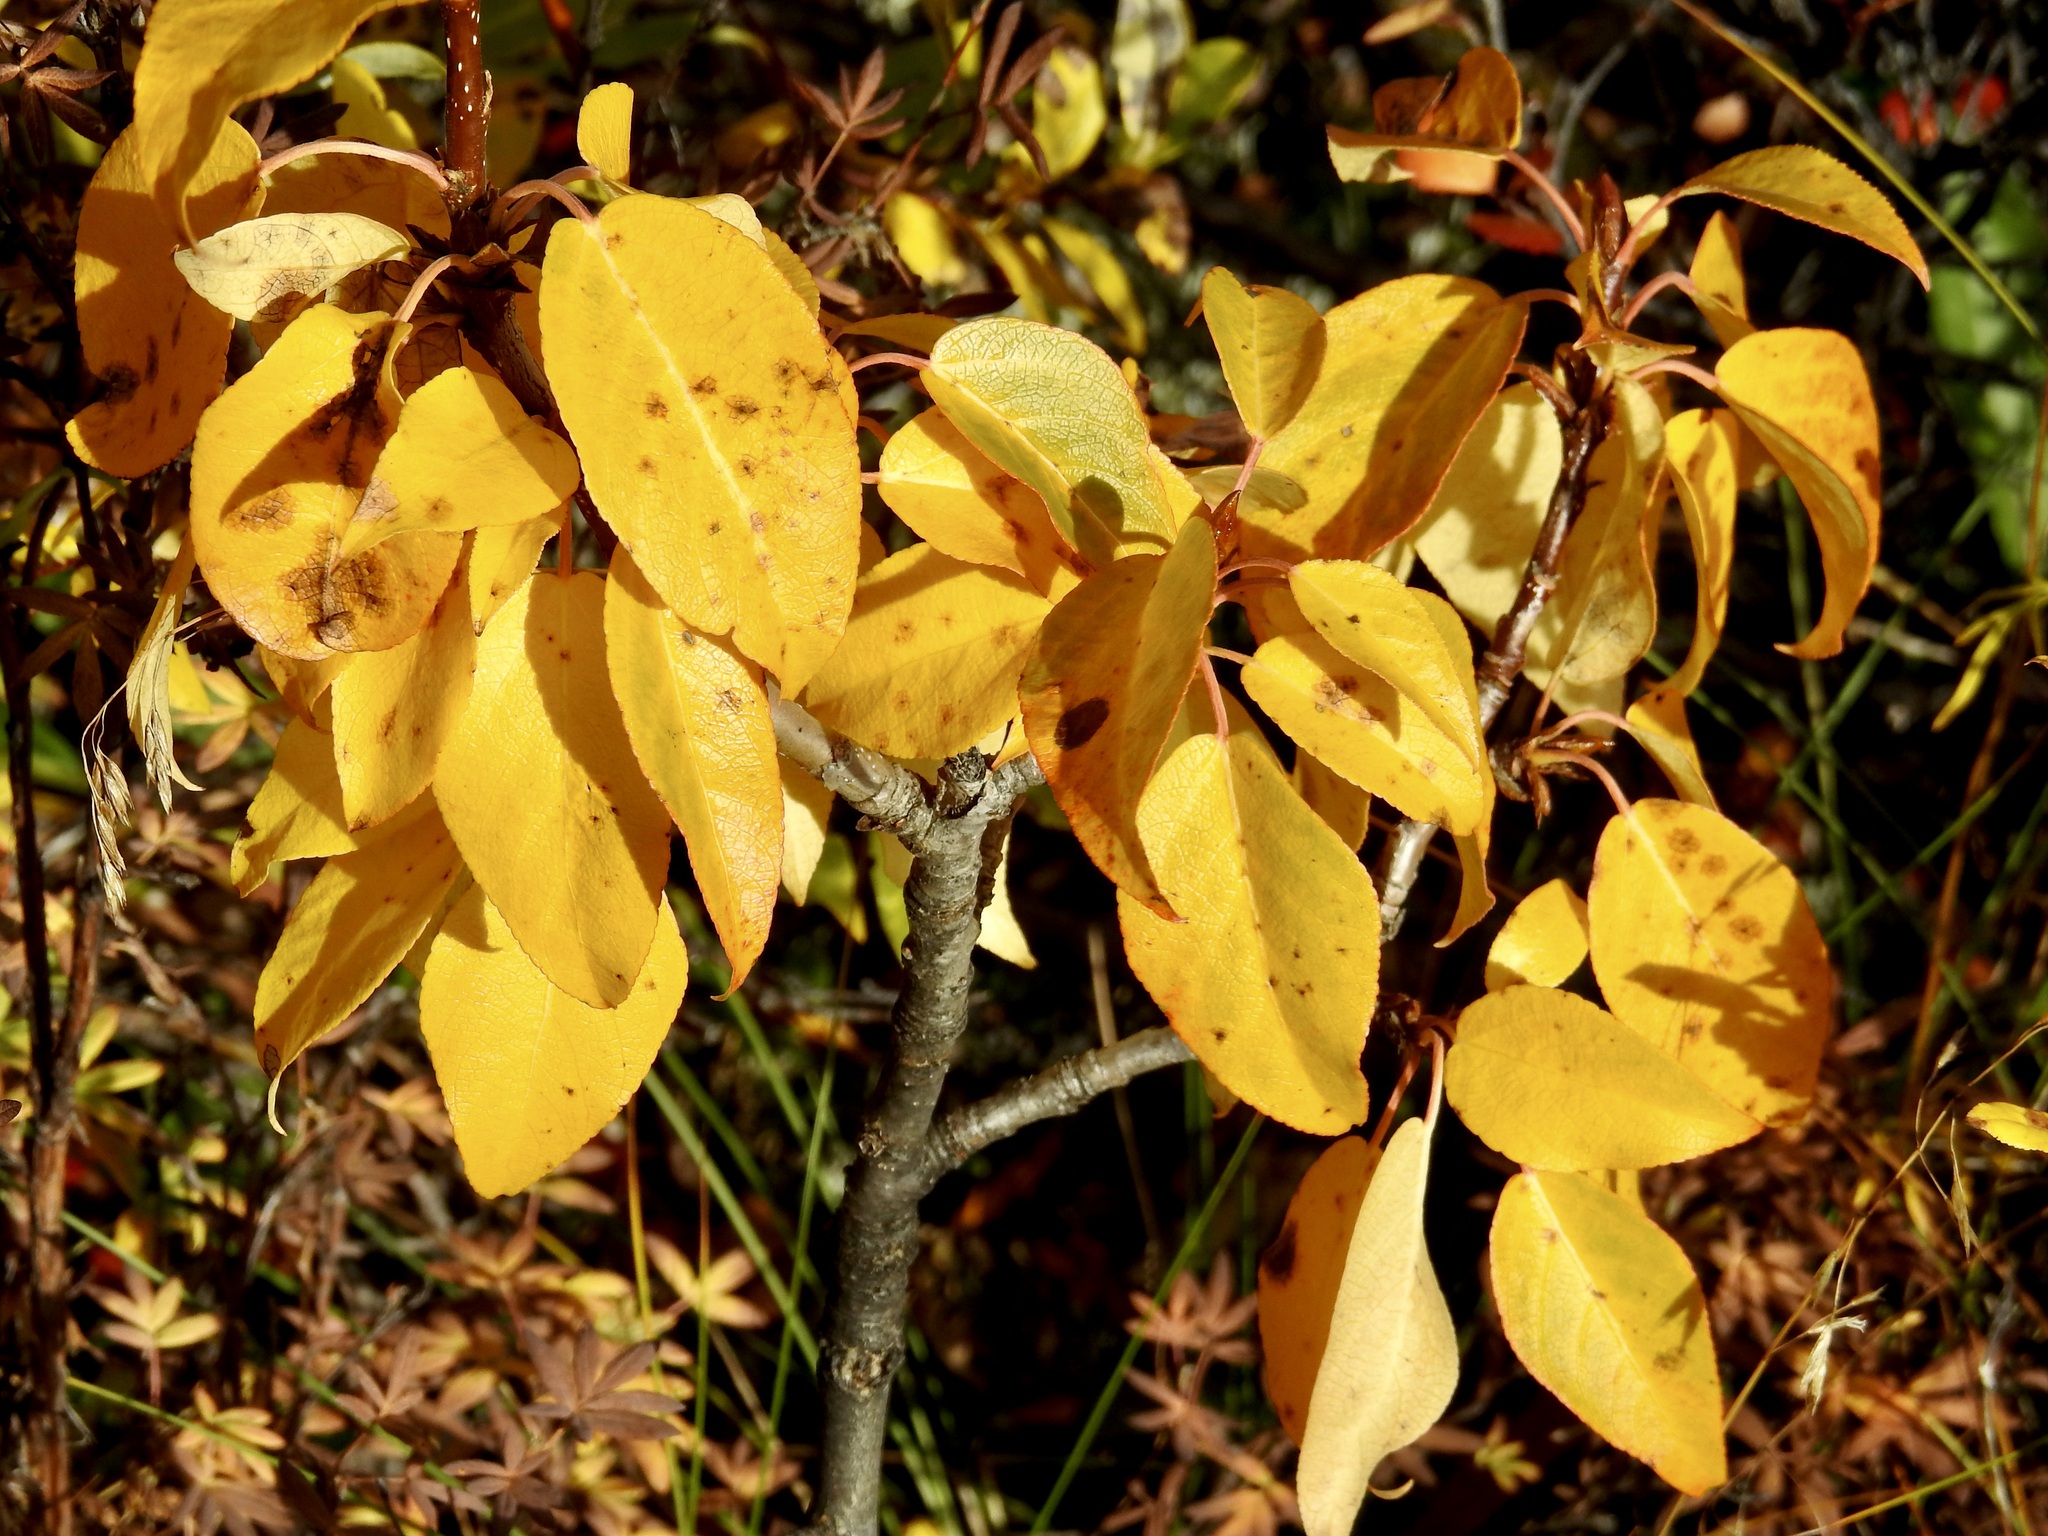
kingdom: Plantae
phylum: Tracheophyta
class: Magnoliopsida
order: Malpighiales
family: Salicaceae
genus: Populus
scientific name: Populus balsamifera
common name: Balsam poplar
